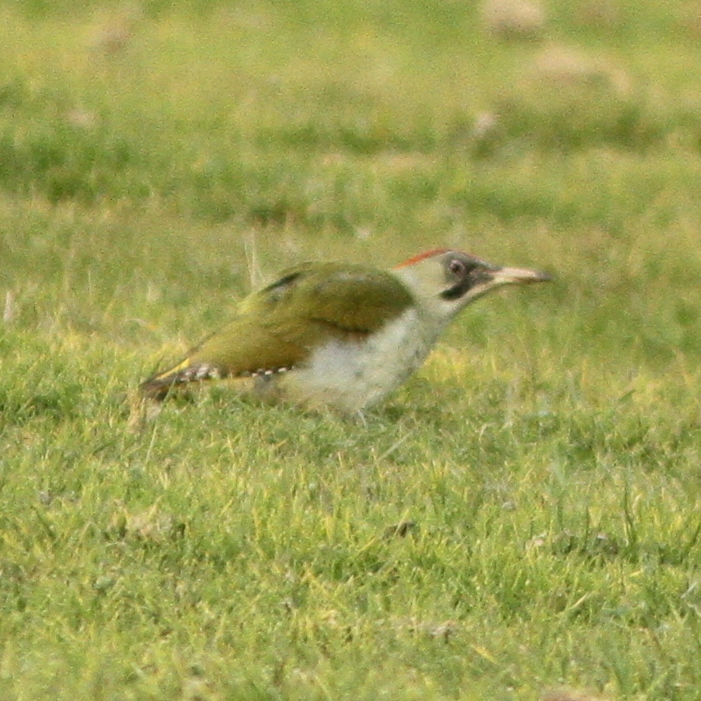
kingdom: Animalia
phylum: Chordata
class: Aves
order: Piciformes
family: Picidae
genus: Picus
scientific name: Picus viridis
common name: European green woodpecker
